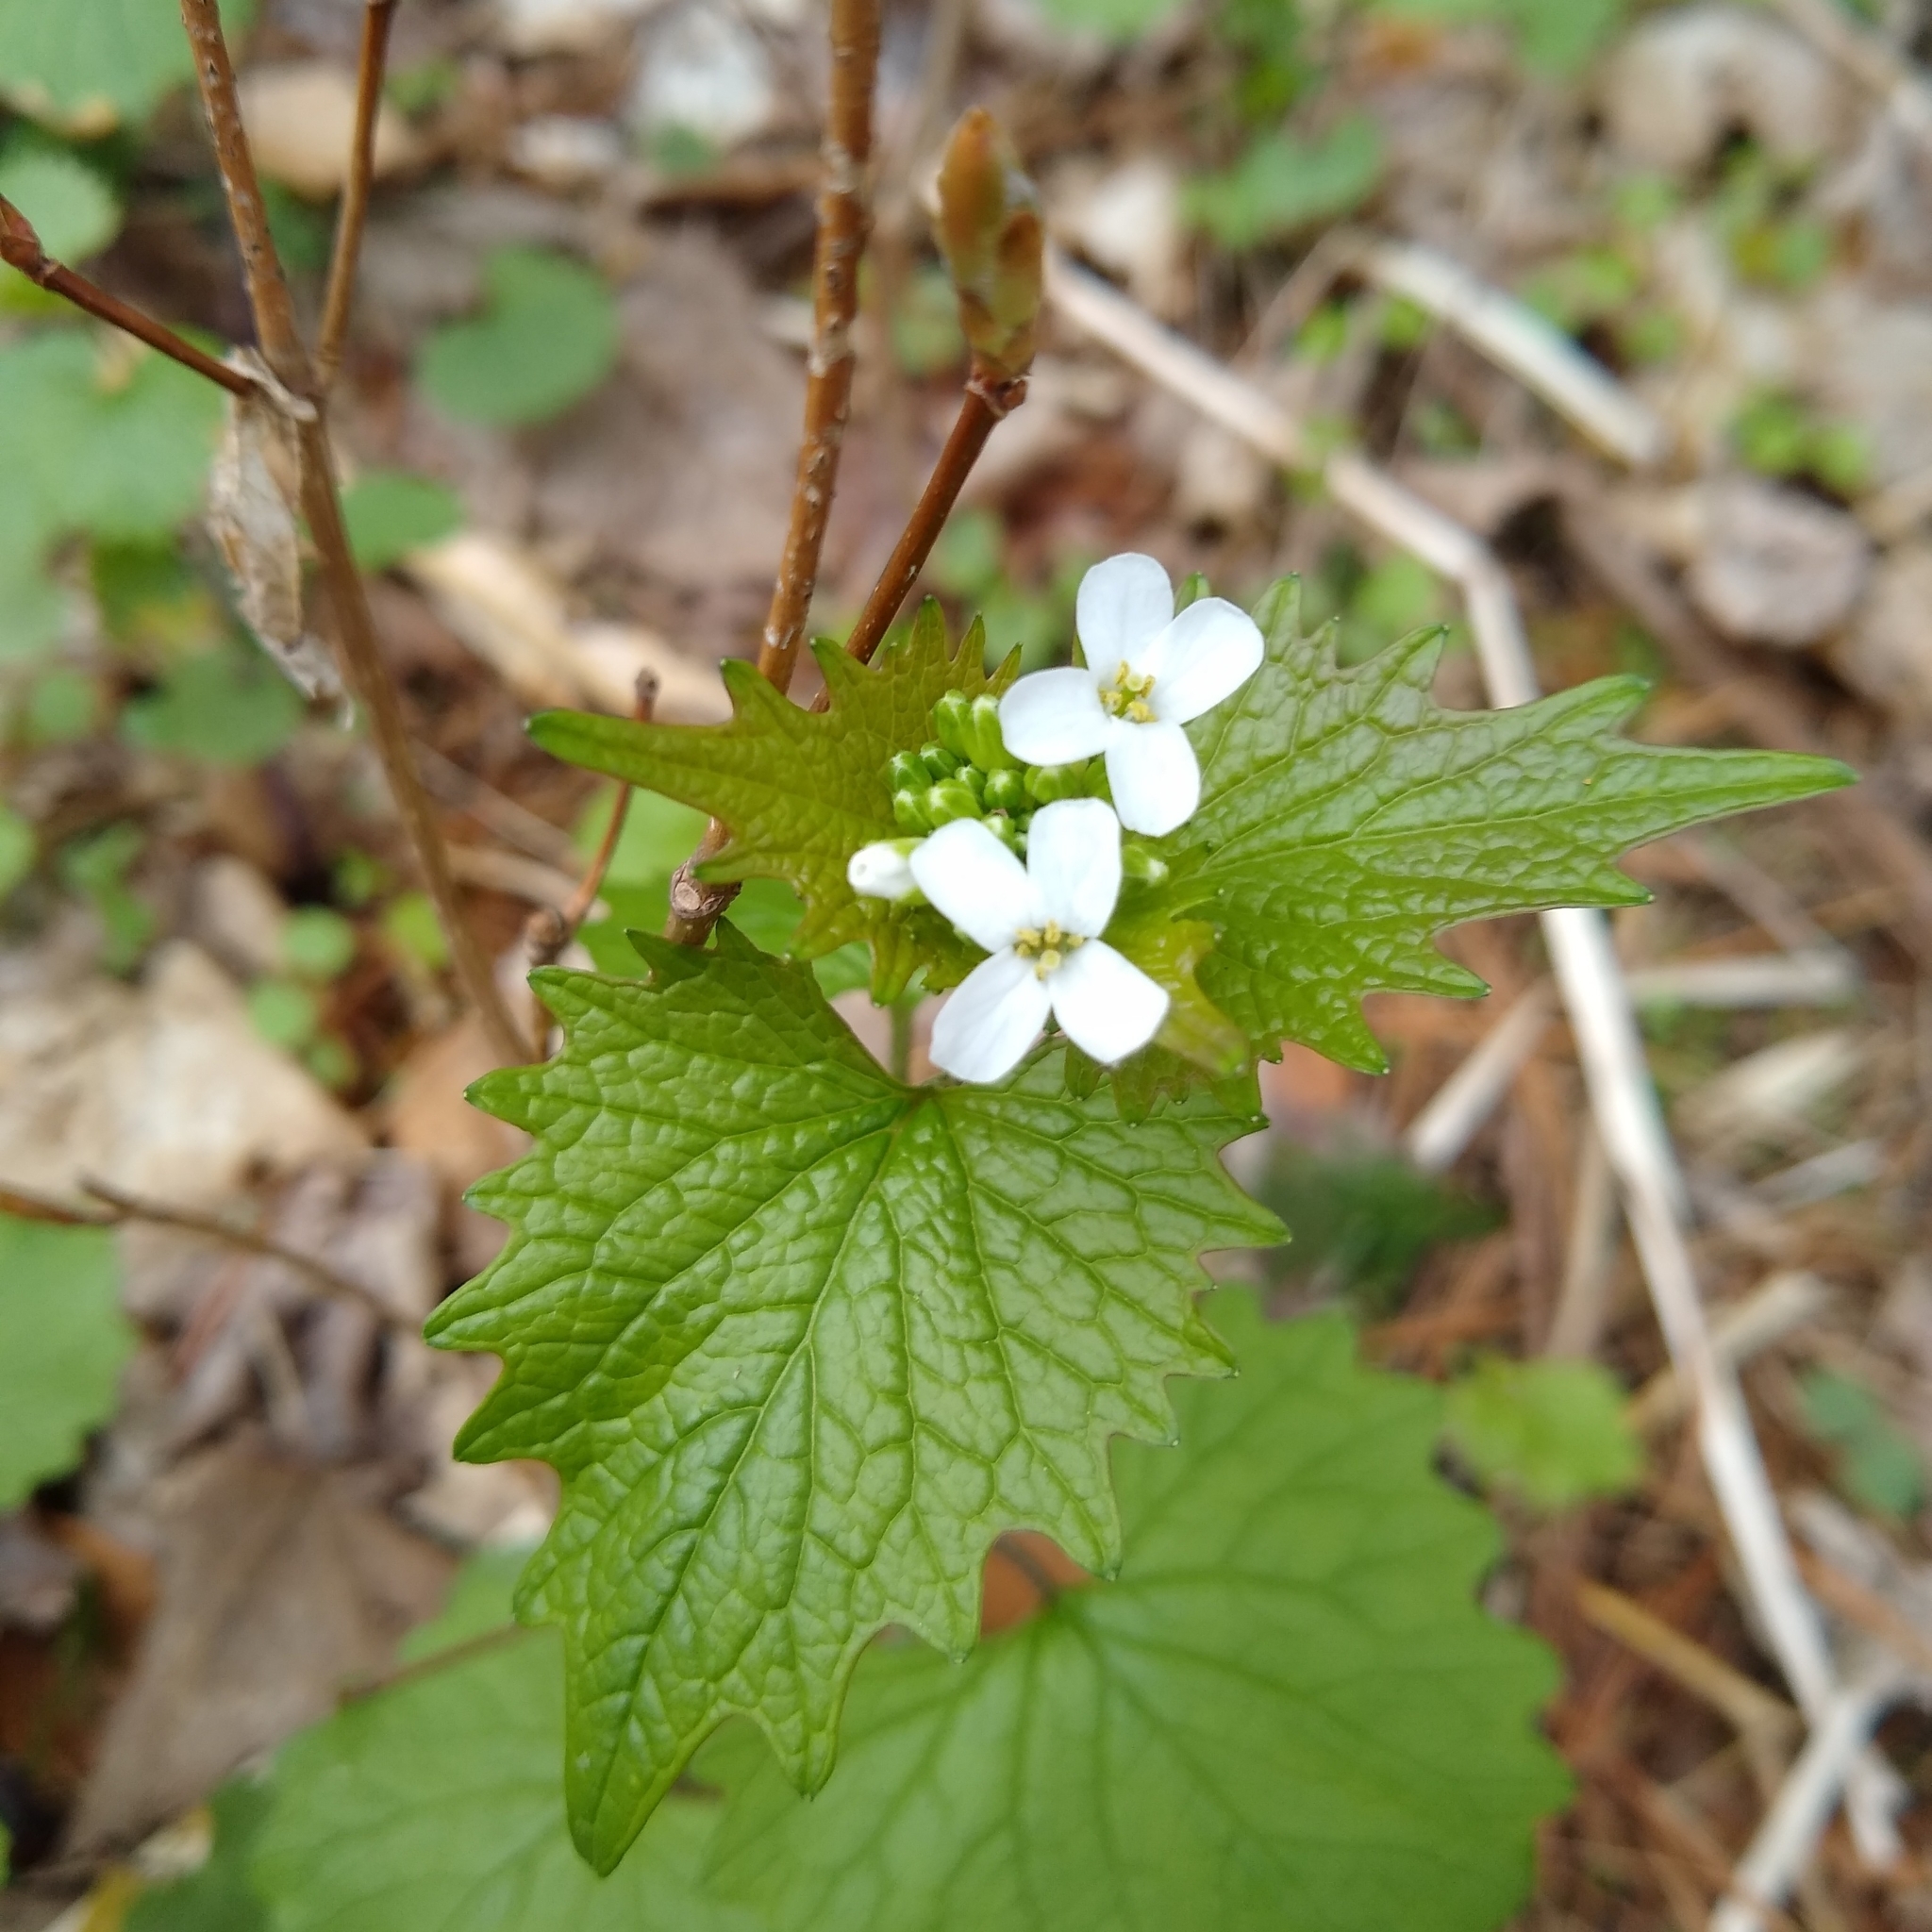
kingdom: Plantae
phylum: Tracheophyta
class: Magnoliopsida
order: Brassicales
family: Brassicaceae
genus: Alliaria
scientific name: Alliaria petiolata
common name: Garlic mustard
